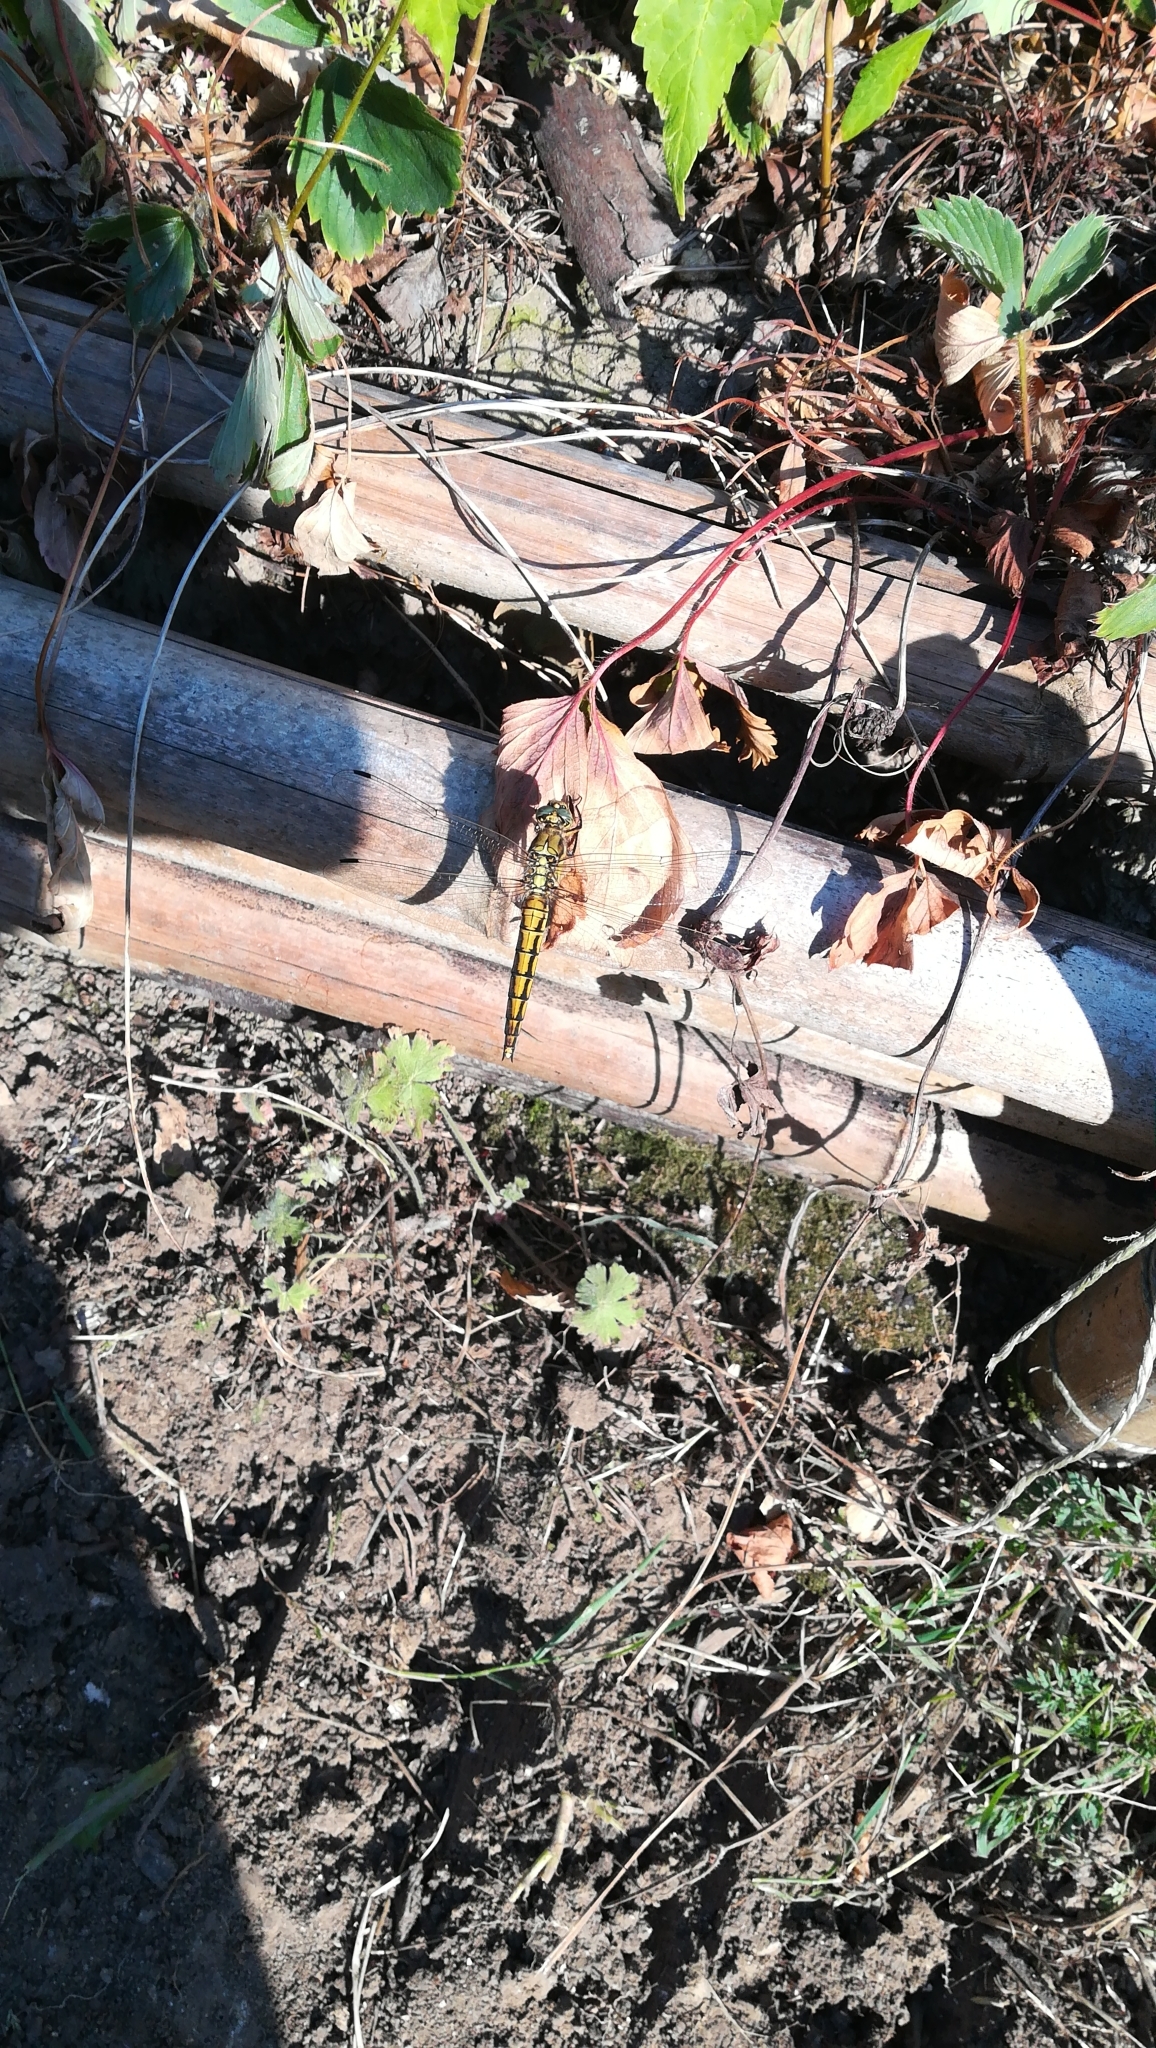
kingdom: Animalia
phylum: Arthropoda
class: Insecta
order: Odonata
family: Libellulidae
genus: Orthetrum
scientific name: Orthetrum cancellatum
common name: Black-tailed skimmer
